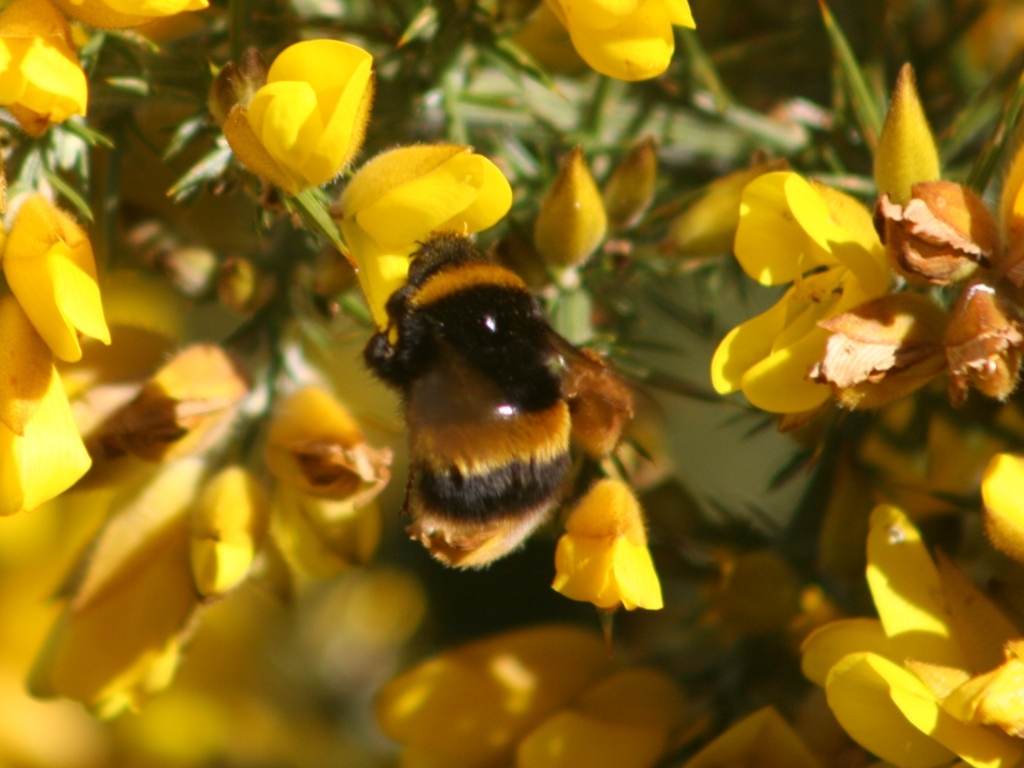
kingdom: Animalia
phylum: Arthropoda
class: Insecta
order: Hymenoptera
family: Apidae
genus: Bombus
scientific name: Bombus terrestris
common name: Buff-tailed bumblebee
